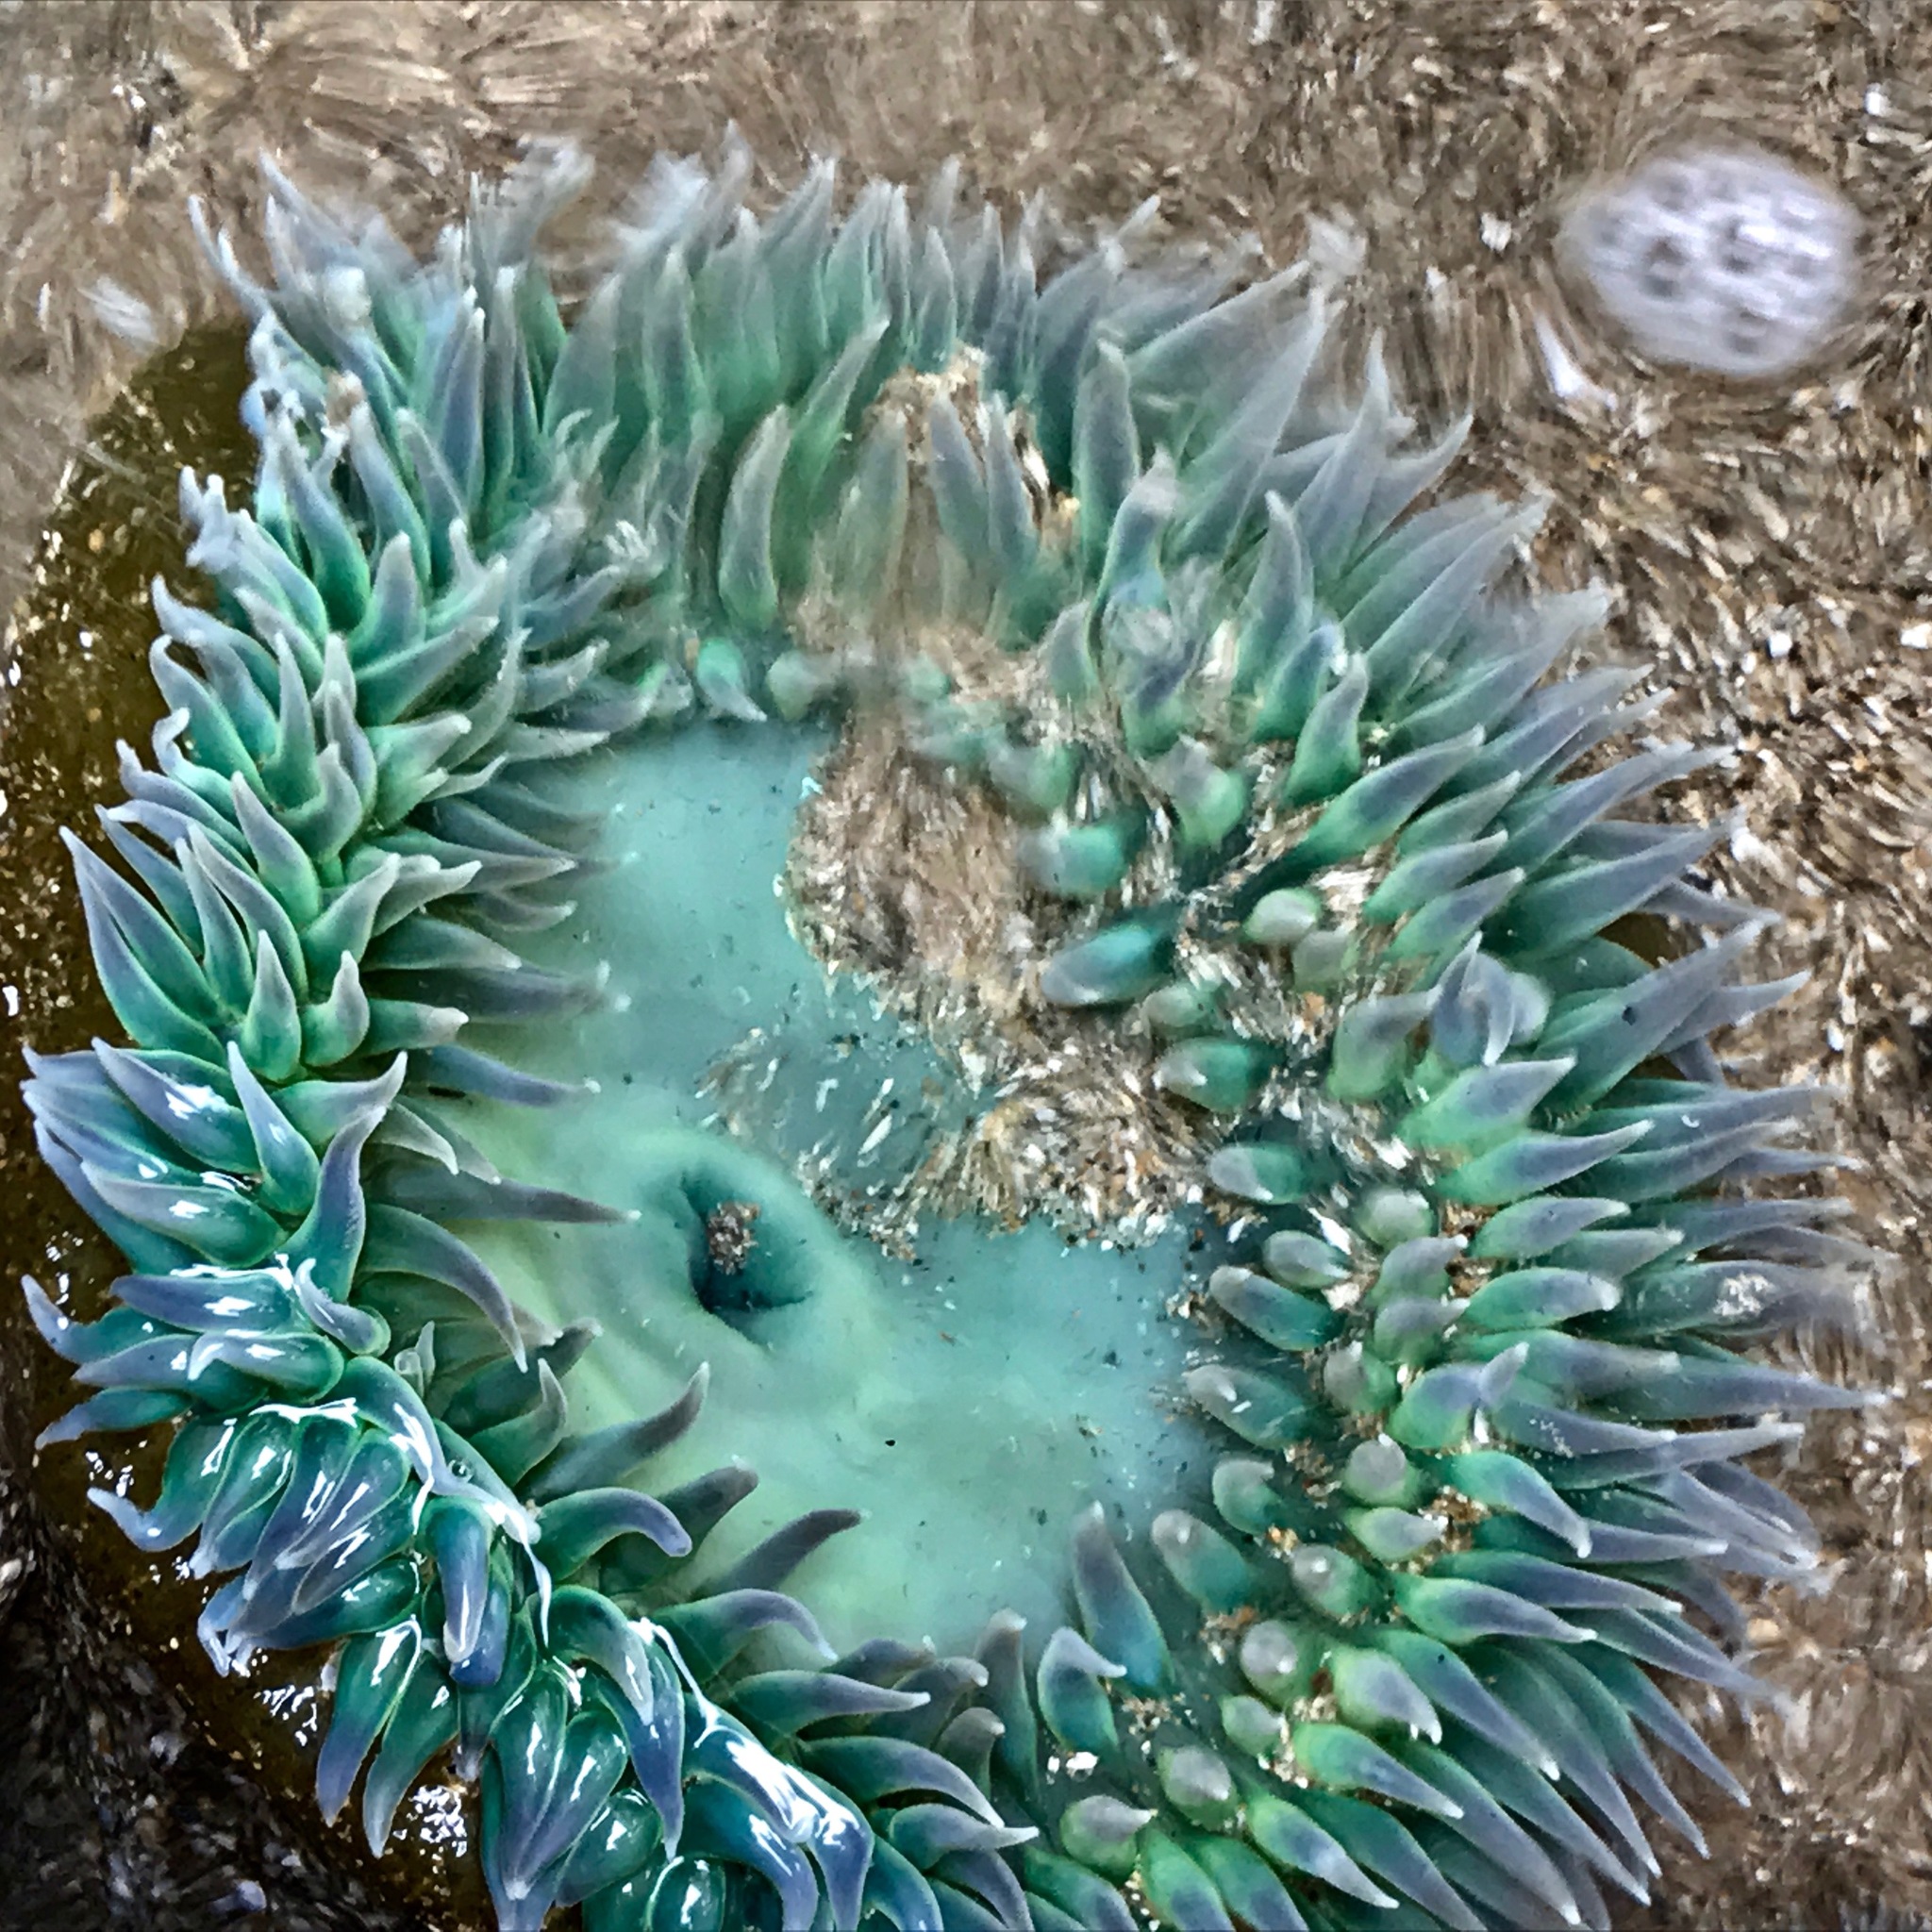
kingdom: Animalia
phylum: Cnidaria
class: Anthozoa
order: Actiniaria
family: Actiniidae
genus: Anthopleura
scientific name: Anthopleura xanthogrammica
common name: Giant green anemone
